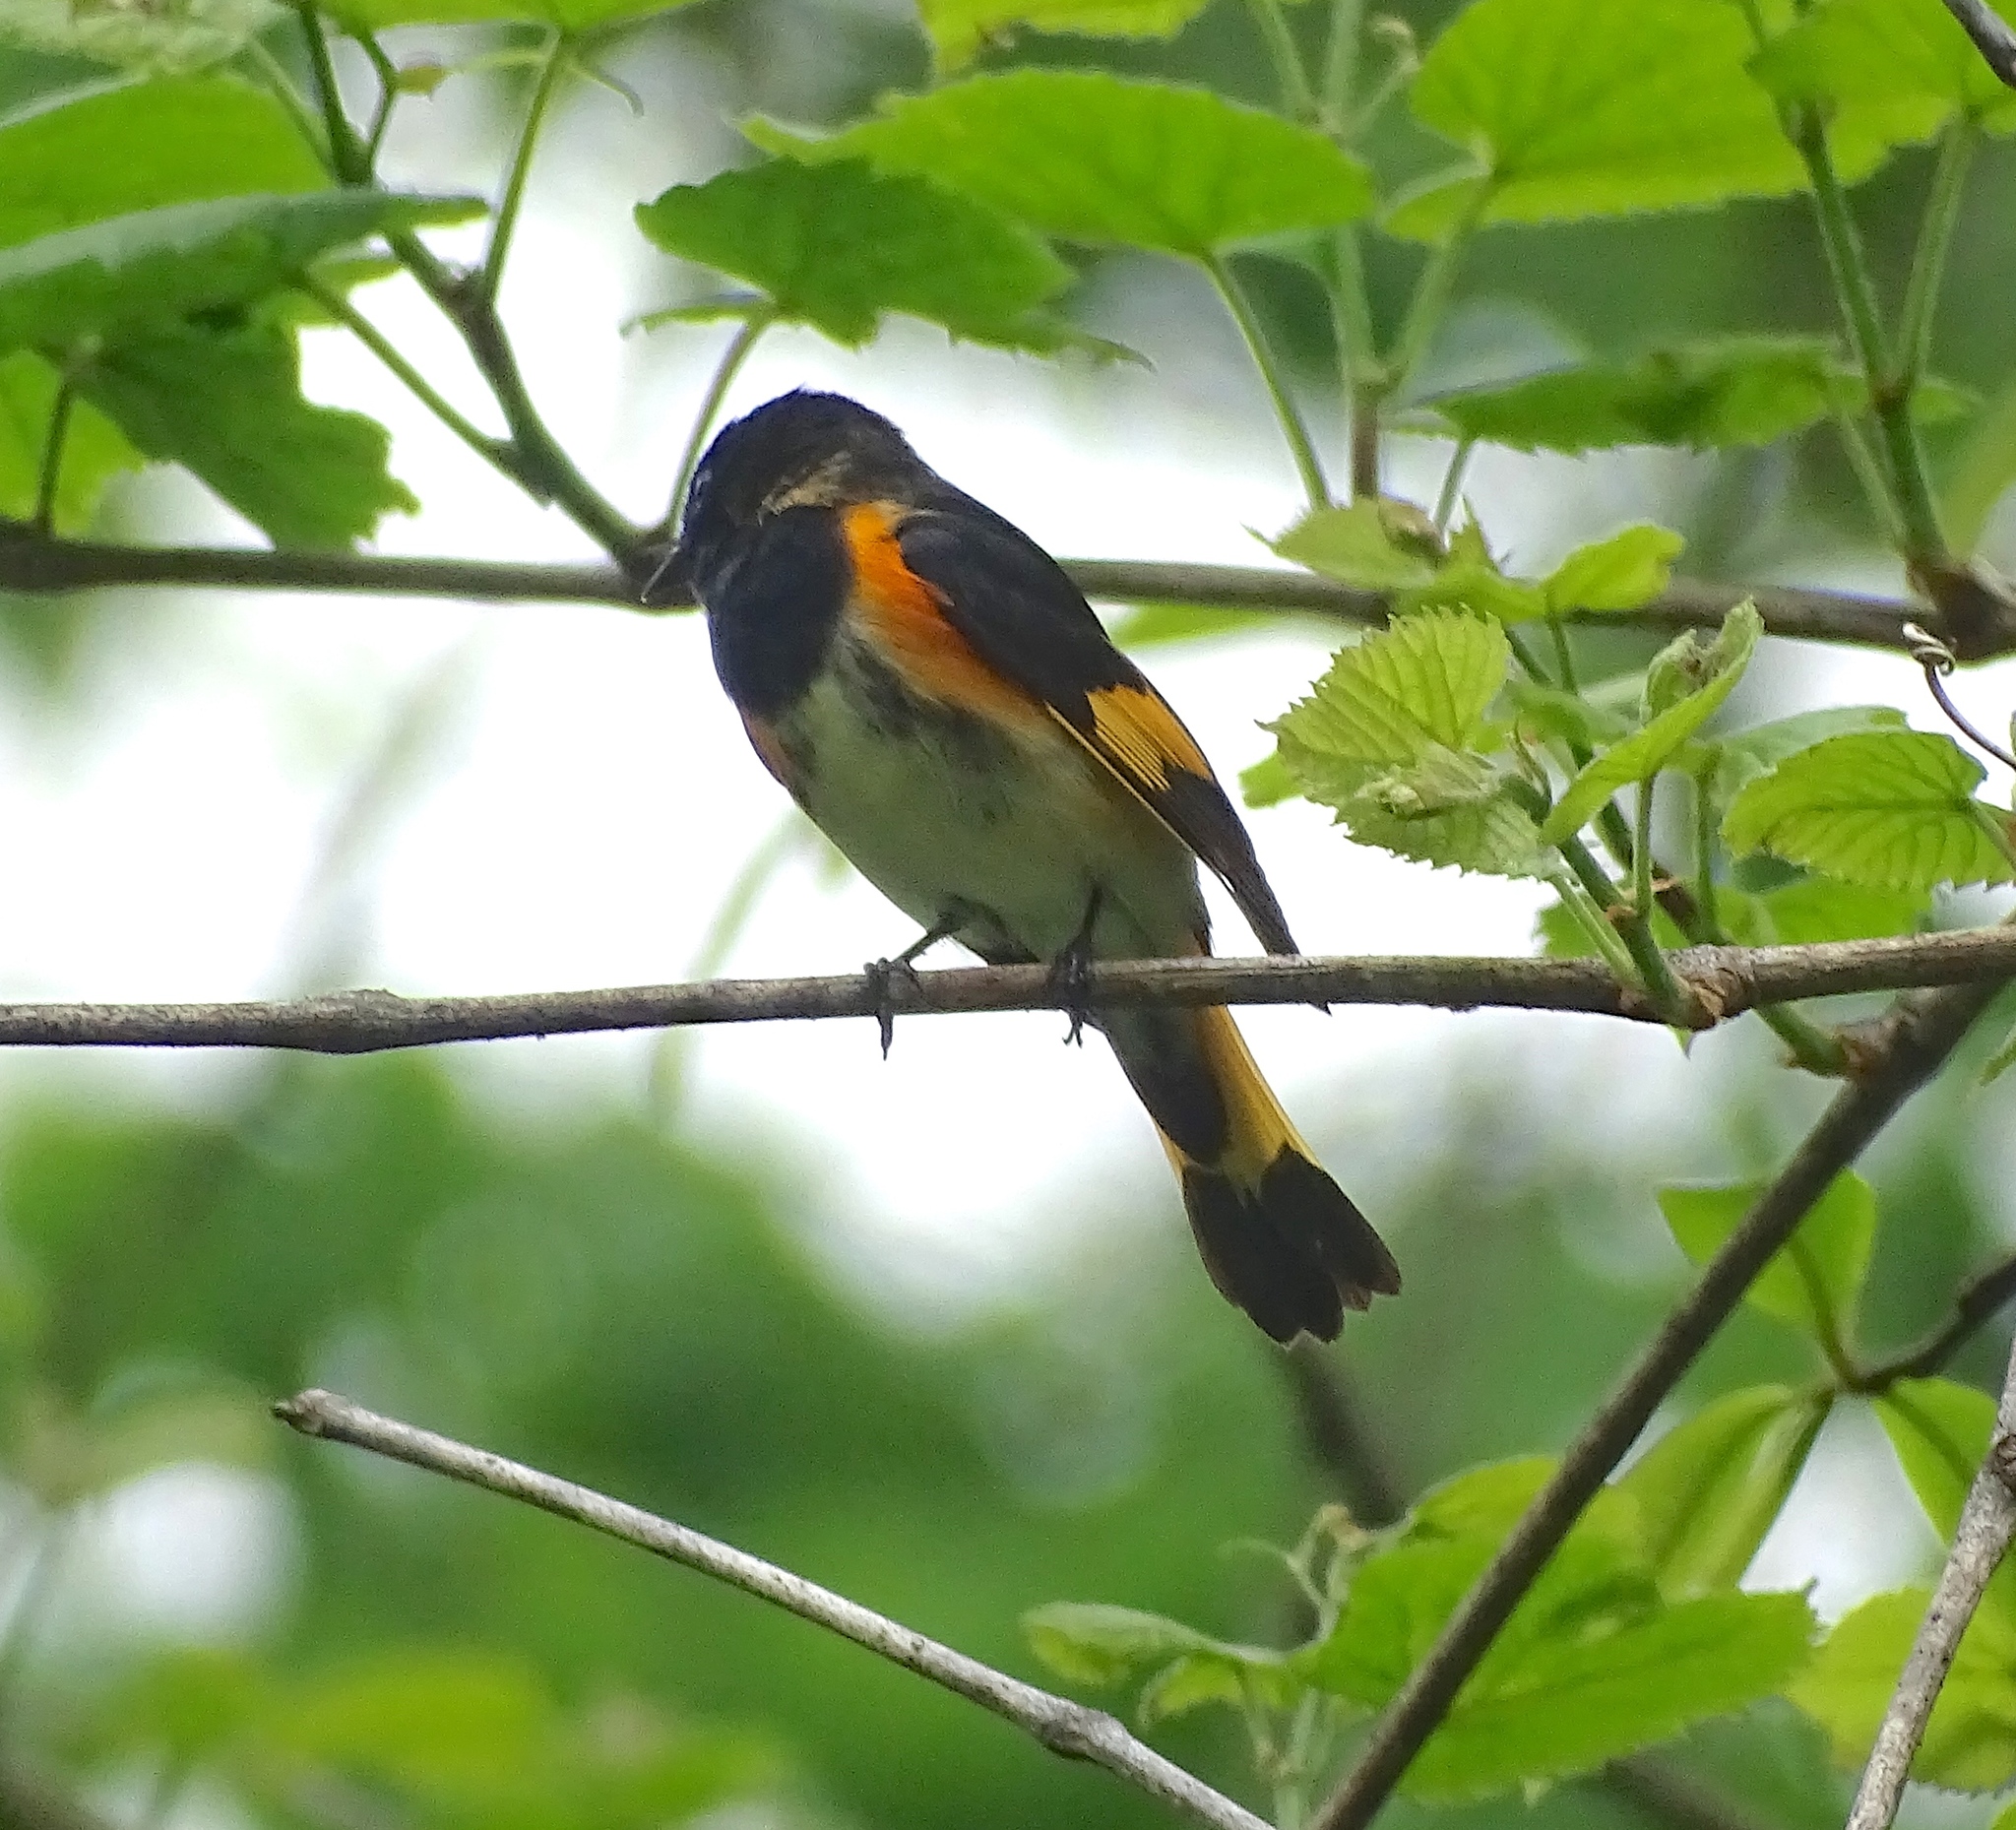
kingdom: Animalia
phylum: Chordata
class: Aves
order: Passeriformes
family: Parulidae
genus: Setophaga
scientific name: Setophaga ruticilla
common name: American redstart
